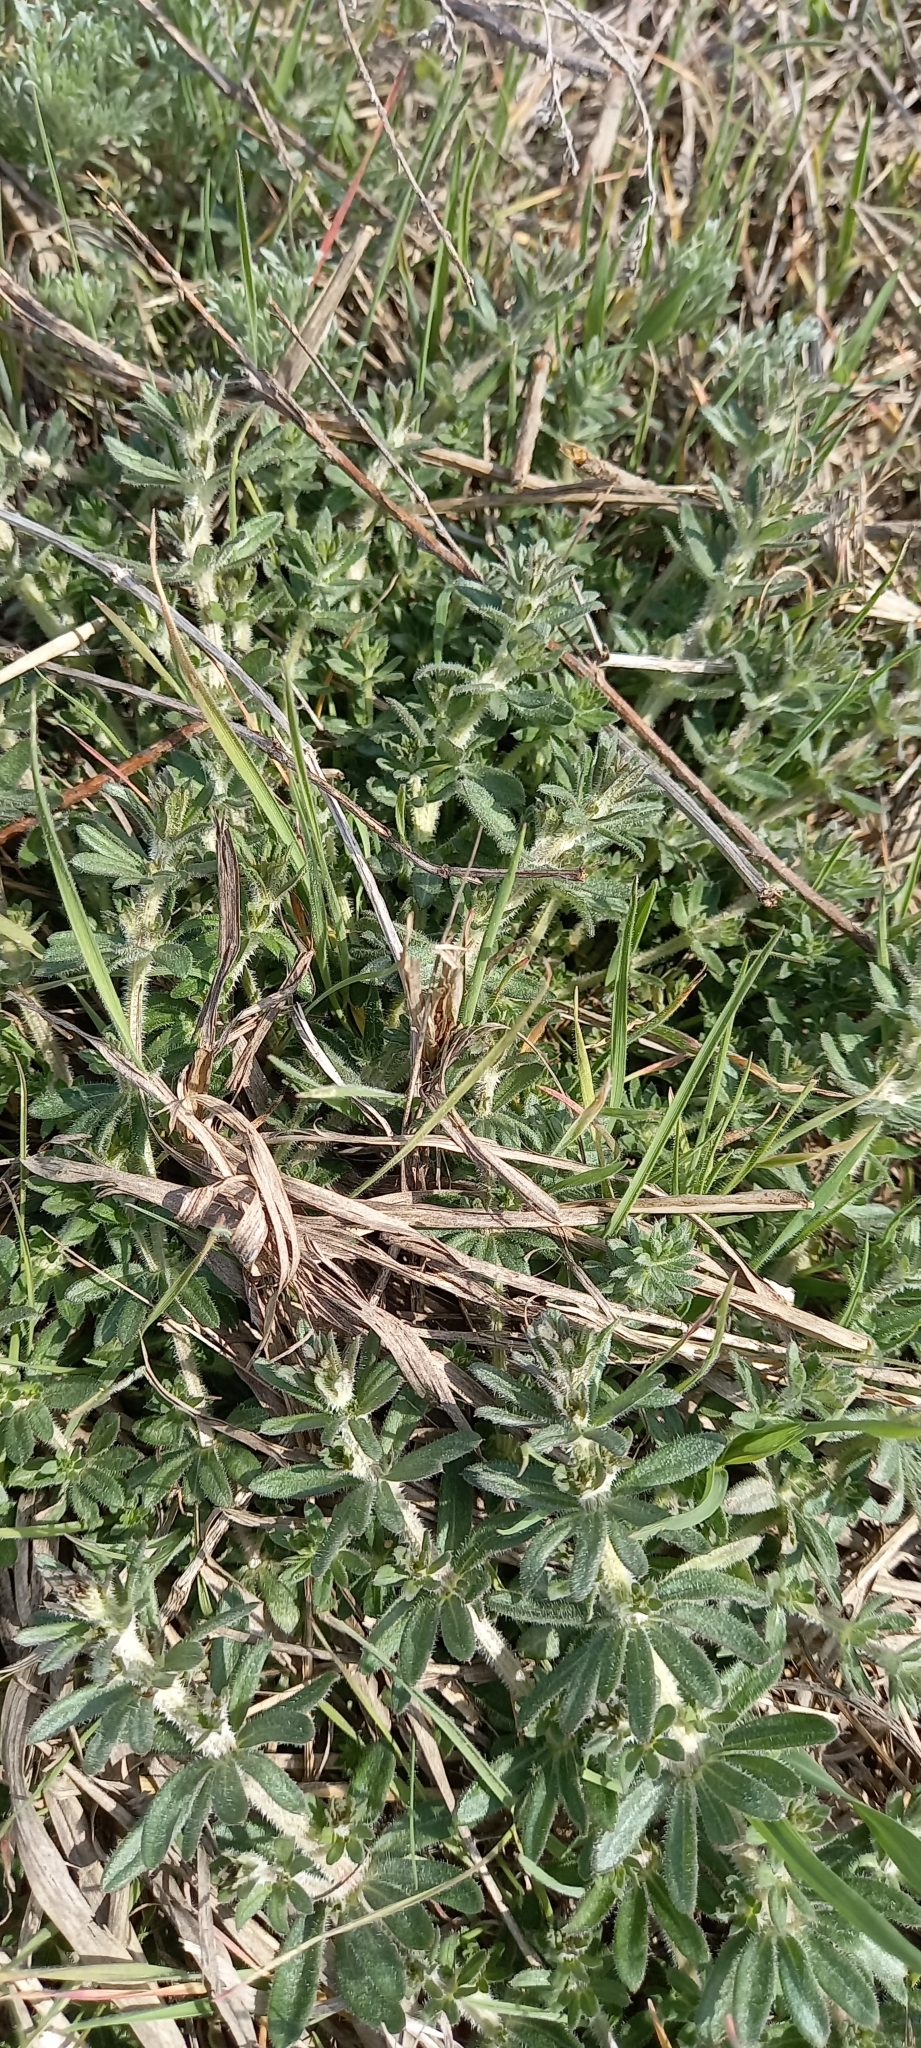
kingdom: Plantae
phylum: Tracheophyta
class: Magnoliopsida
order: Gentianales
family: Rubiaceae
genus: Galium
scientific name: Galium humifusum
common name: Spreading bedstraw
